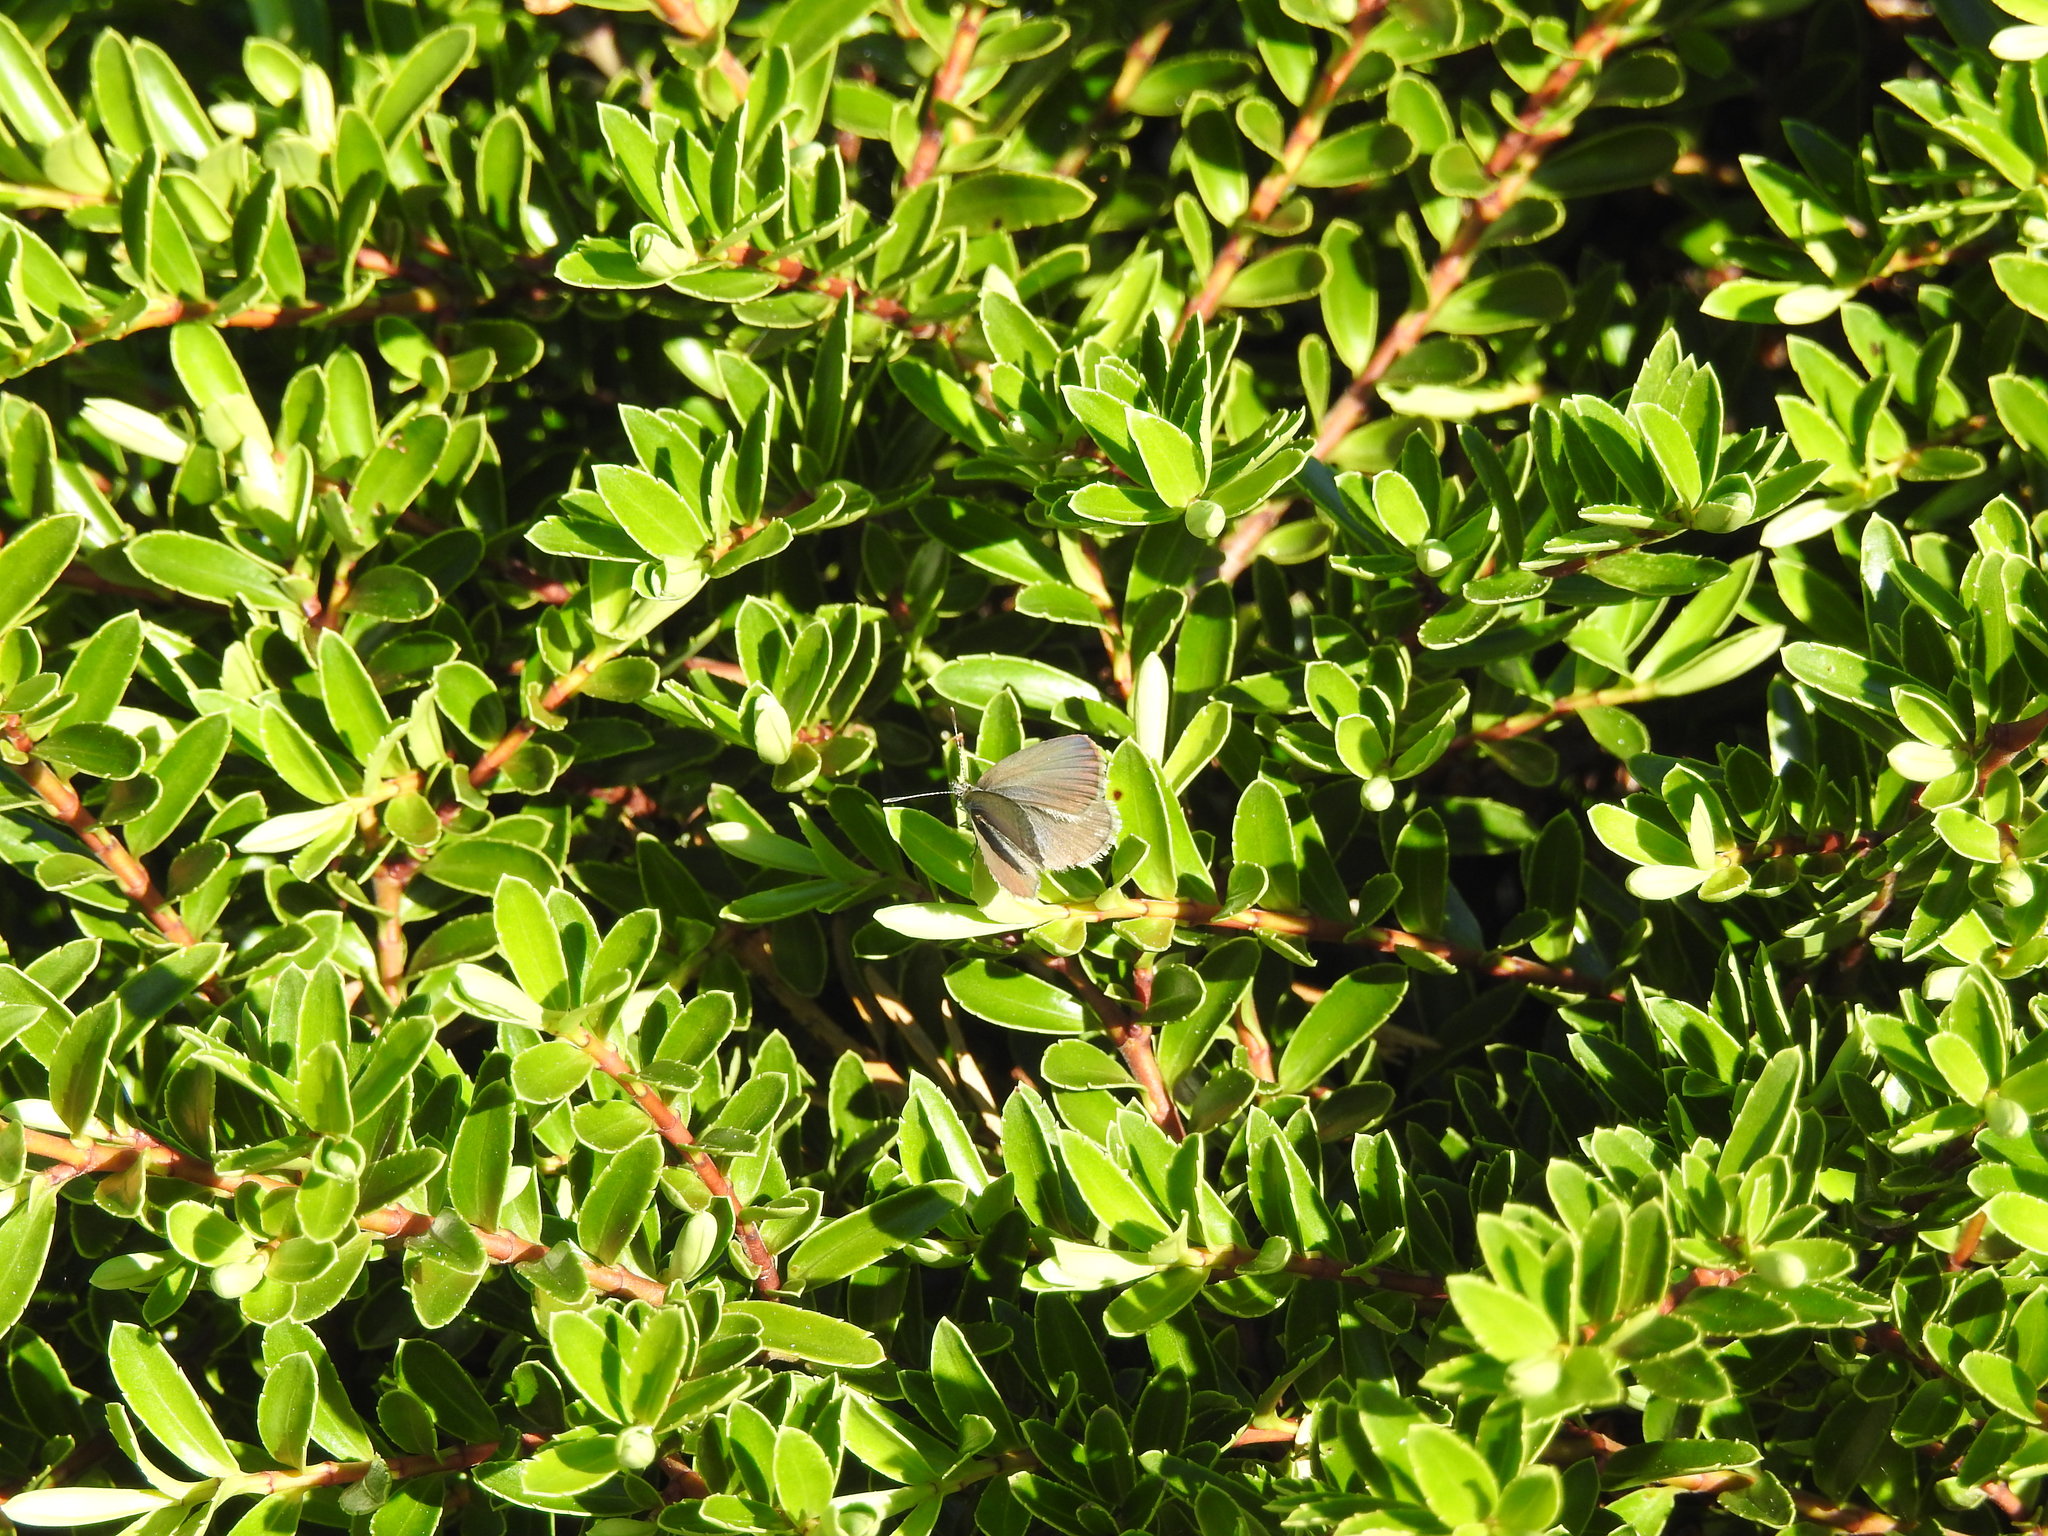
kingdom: Animalia
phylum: Arthropoda
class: Insecta
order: Lepidoptera
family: Lycaenidae
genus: Zizina
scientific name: Zizina labradus
